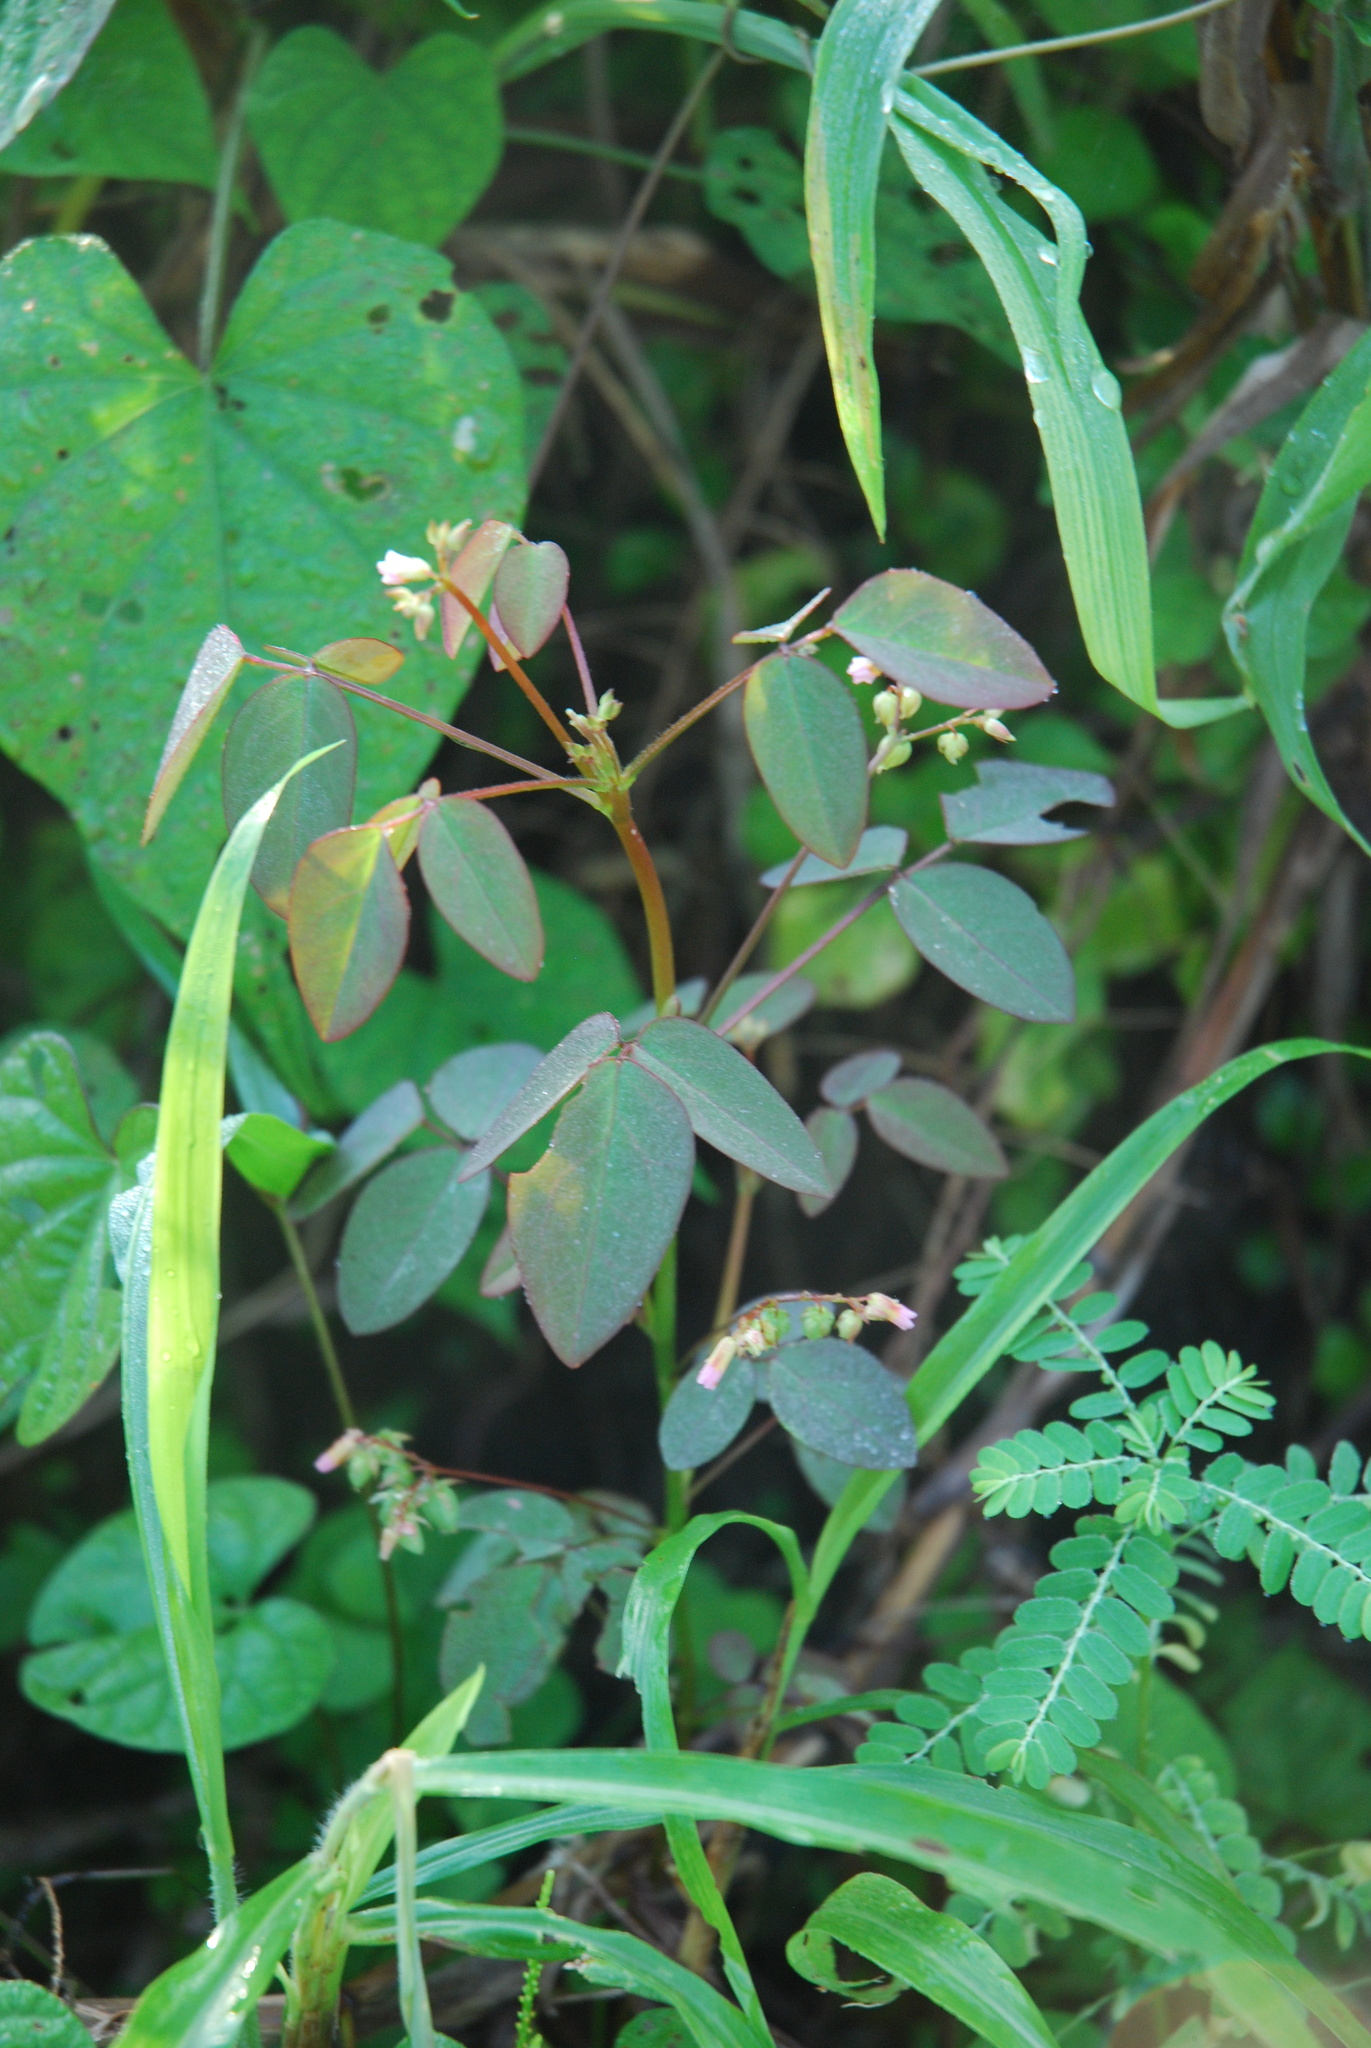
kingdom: Plantae
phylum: Tracheophyta
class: Magnoliopsida
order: Oxalidales
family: Oxalidaceae
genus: Oxalis
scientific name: Oxalis barrelieri
